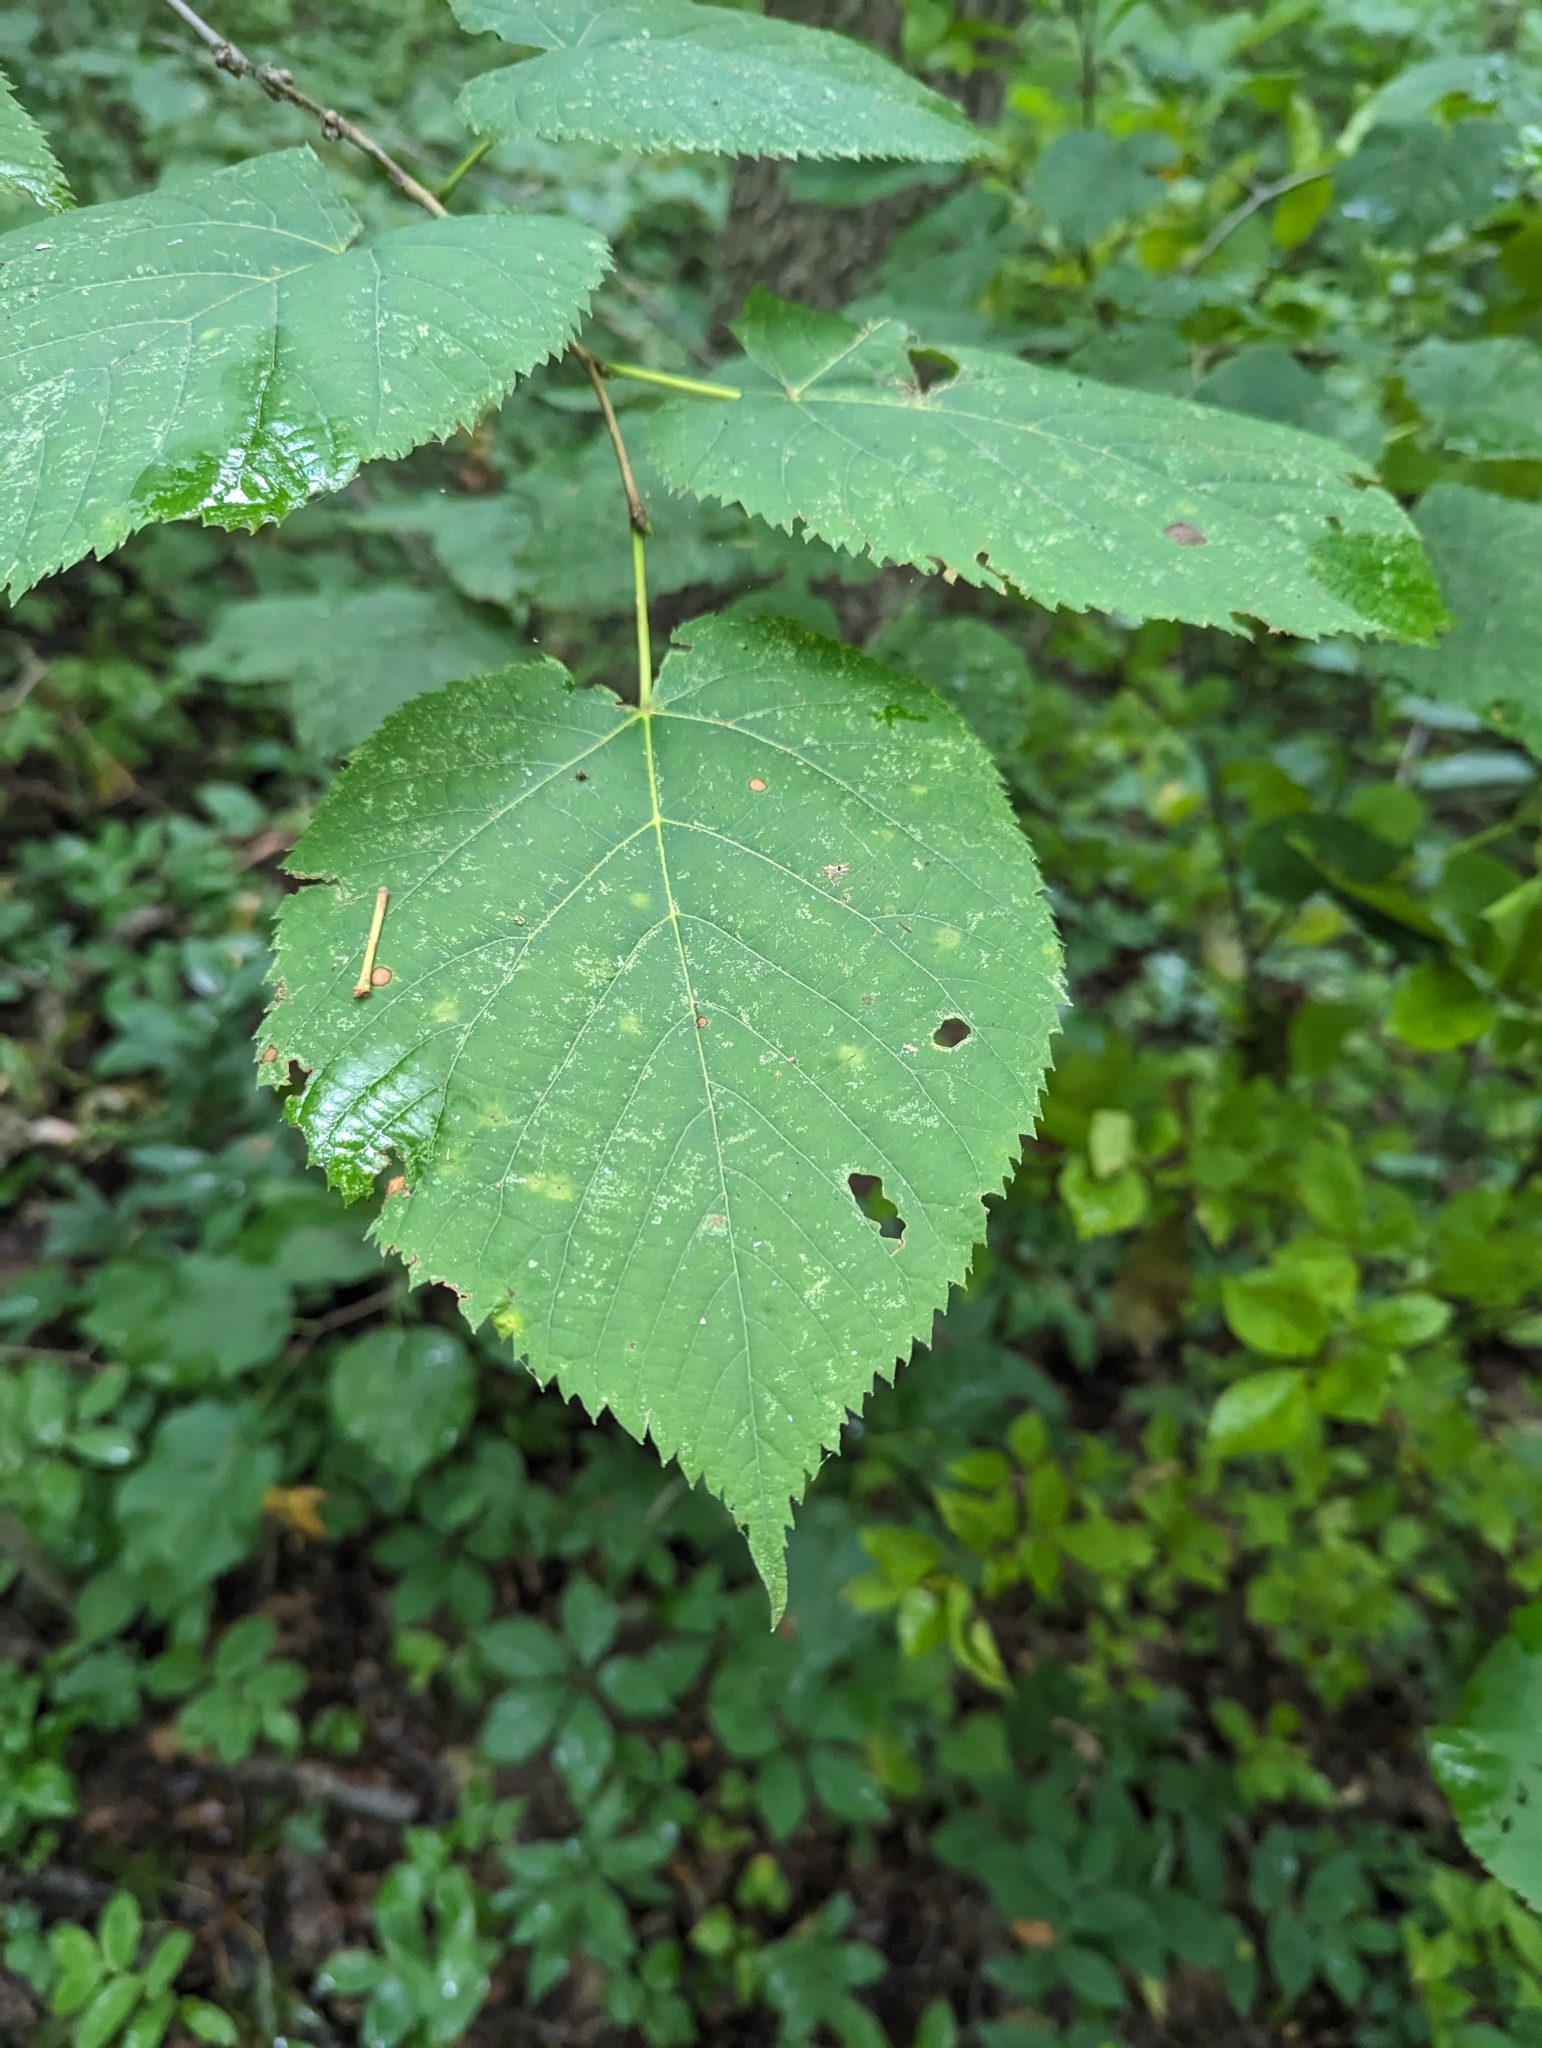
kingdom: Plantae
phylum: Tracheophyta
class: Magnoliopsida
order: Malvales
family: Malvaceae
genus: Tilia
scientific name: Tilia americana
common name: Basswood
